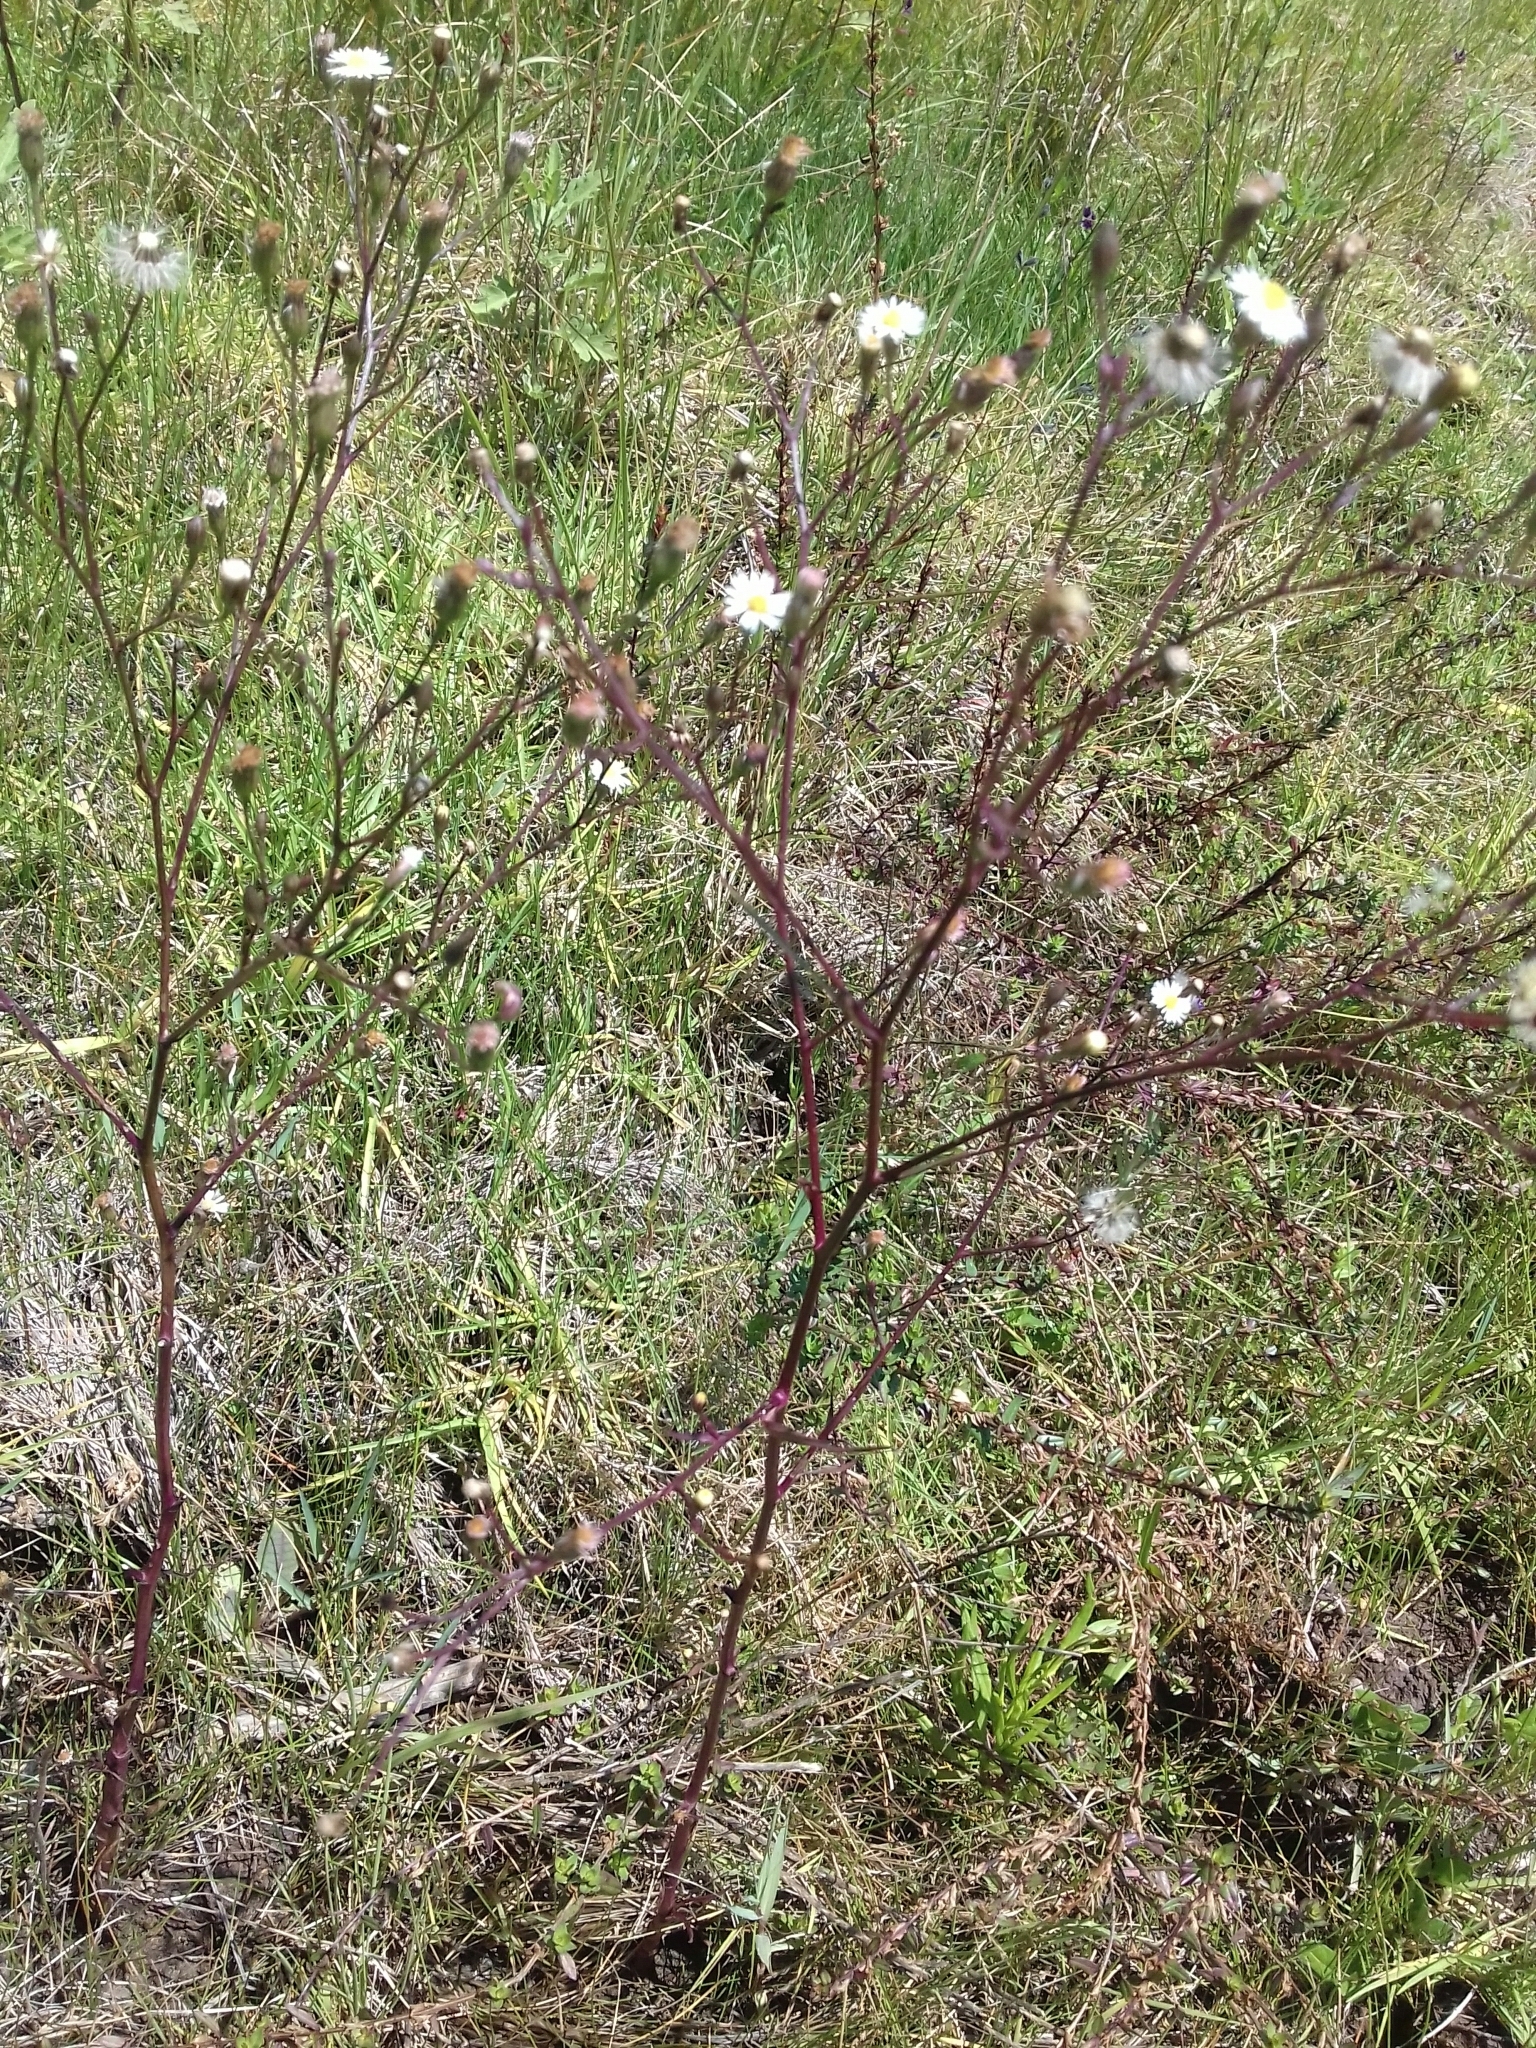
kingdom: Plantae
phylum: Tracheophyta
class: Magnoliopsida
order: Asterales
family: Asteraceae
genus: Symphyotrichum
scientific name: Symphyotrichum subulatum
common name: Annual saltmarsh aster
